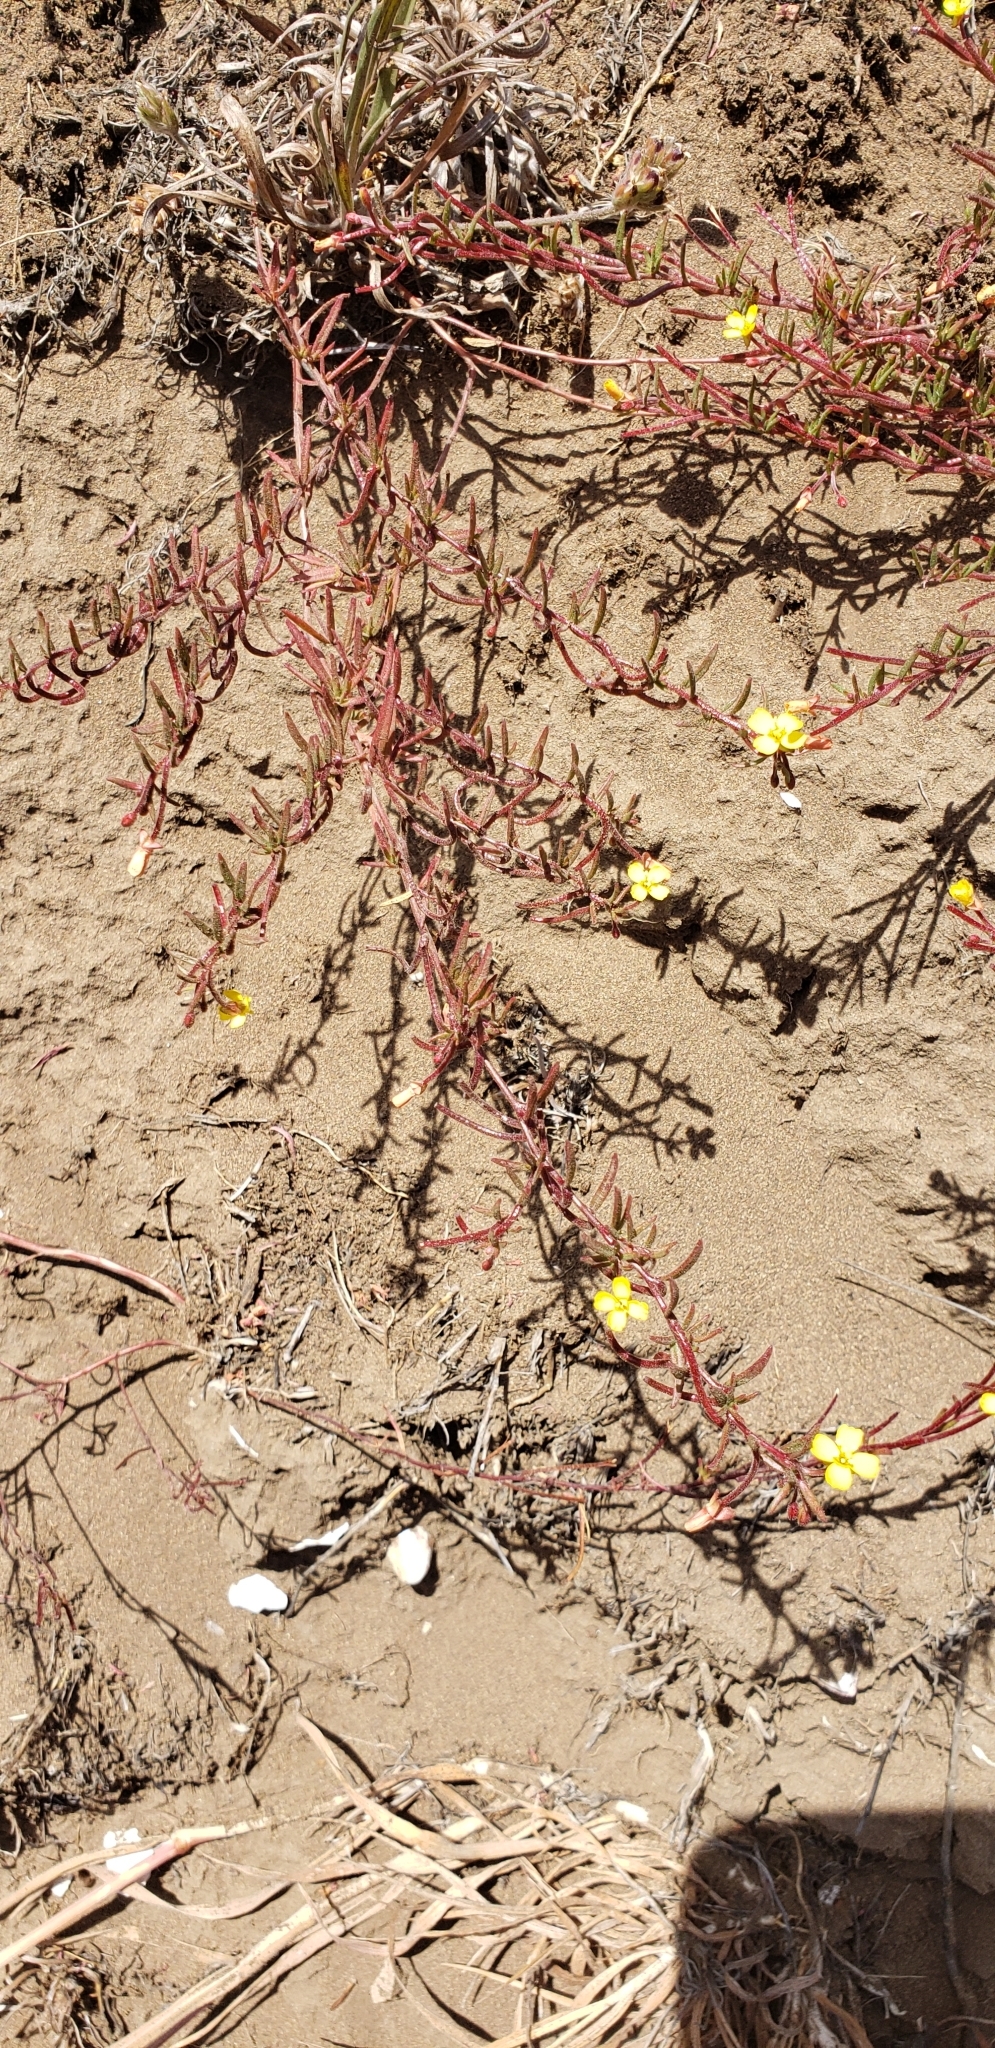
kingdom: Plantae
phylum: Tracheophyta
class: Magnoliopsida
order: Myrtales
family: Onagraceae
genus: Camissonia
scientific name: Camissonia dentata
